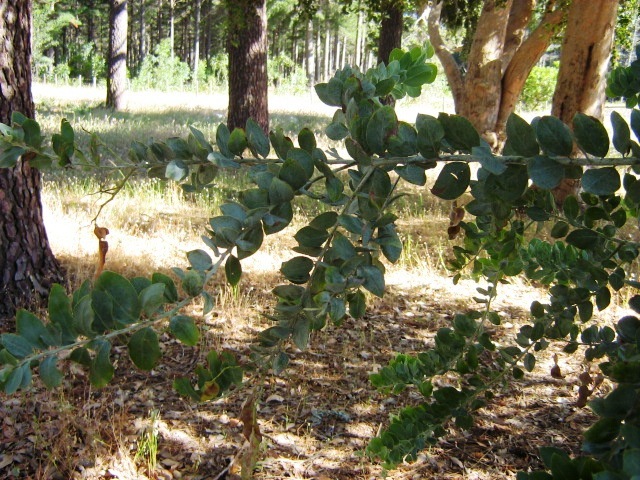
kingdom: Plantae
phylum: Tracheophyta
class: Magnoliopsida
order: Fabales
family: Fabaceae
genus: Acacia
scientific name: Acacia podalyriifolia
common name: Pearl wattle
